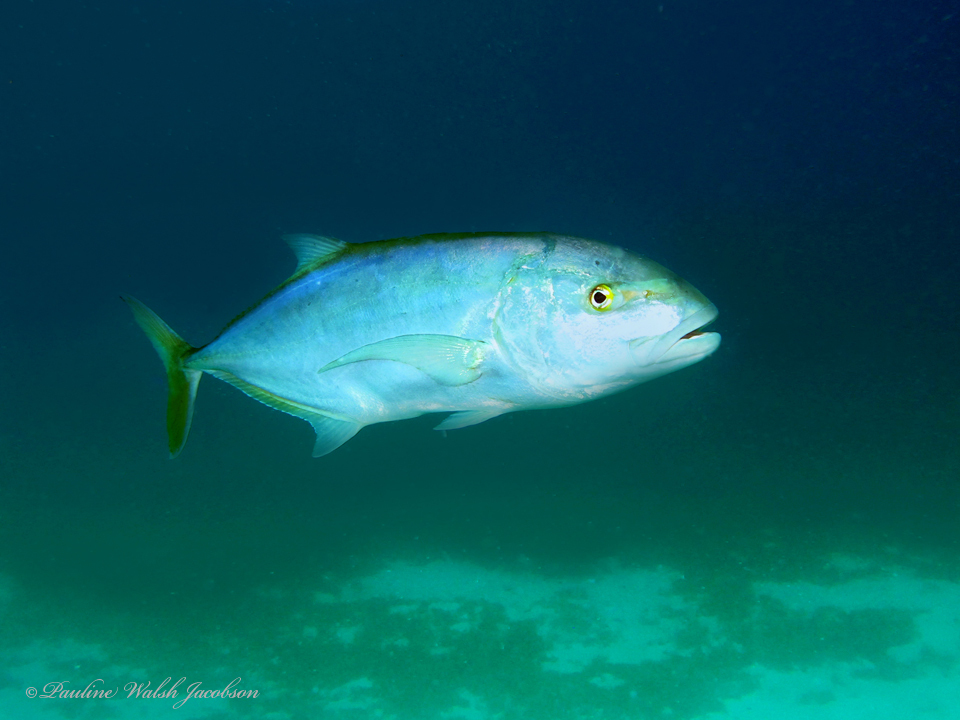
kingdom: Animalia
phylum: Chordata
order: Perciformes
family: Carangidae
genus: Carangoides
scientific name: Carangoides bartholomaei
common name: Yellow jack
